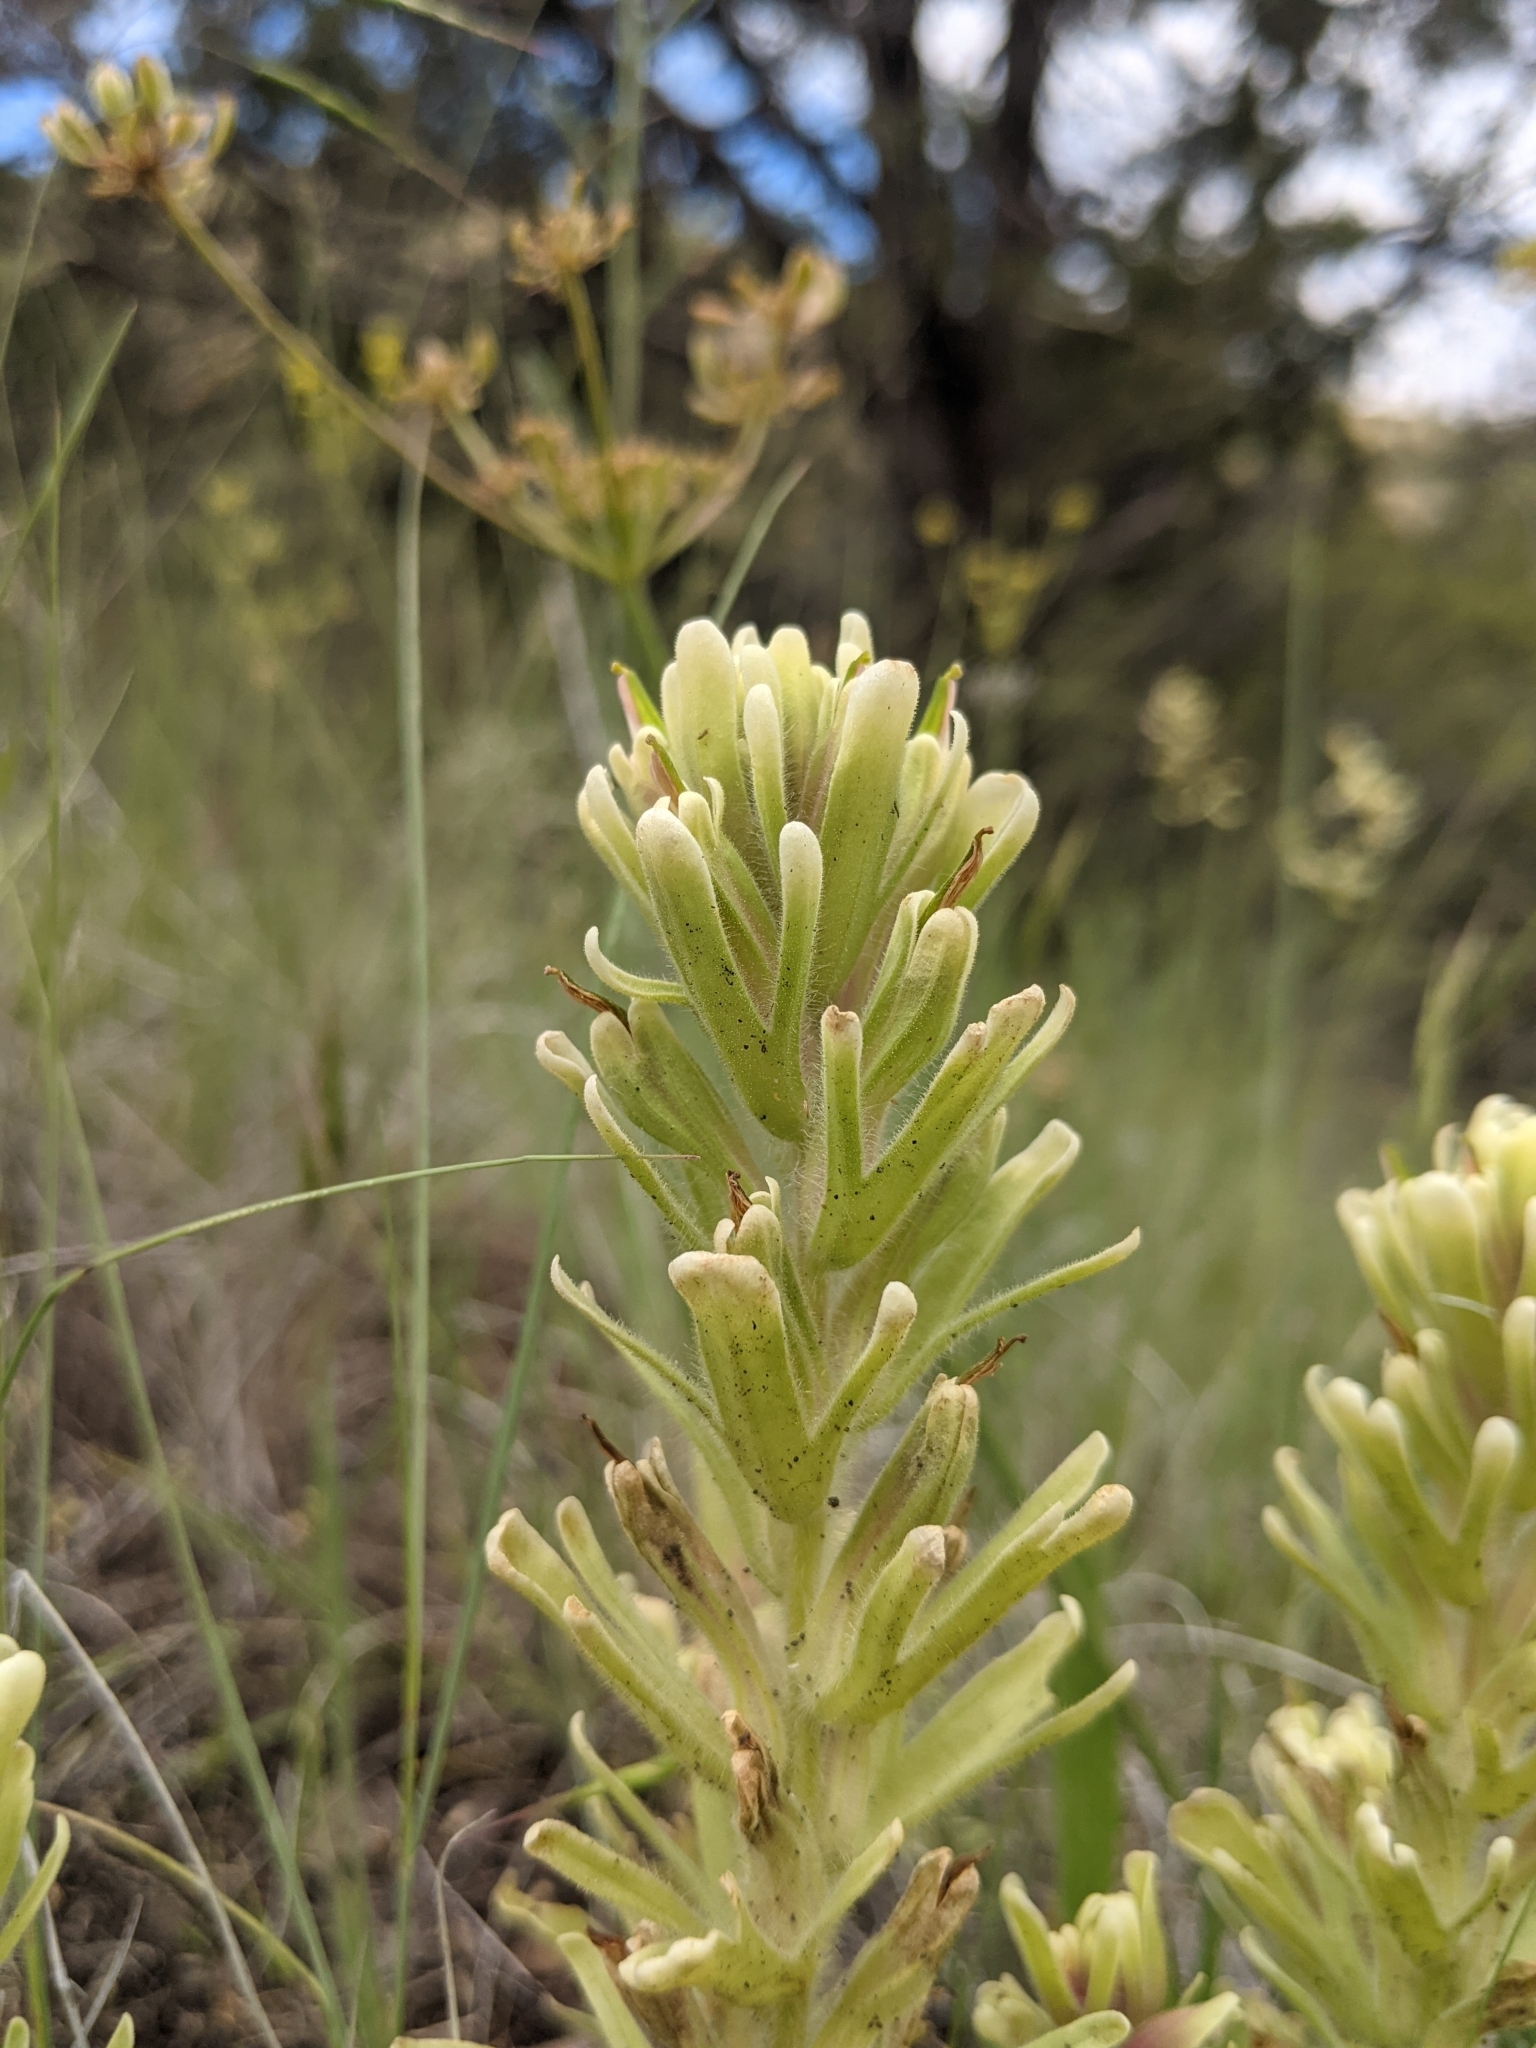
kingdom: Plantae
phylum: Tracheophyta
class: Magnoliopsida
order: Lamiales
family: Orobanchaceae
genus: Castilleja
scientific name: Castilleja xanthotricha
